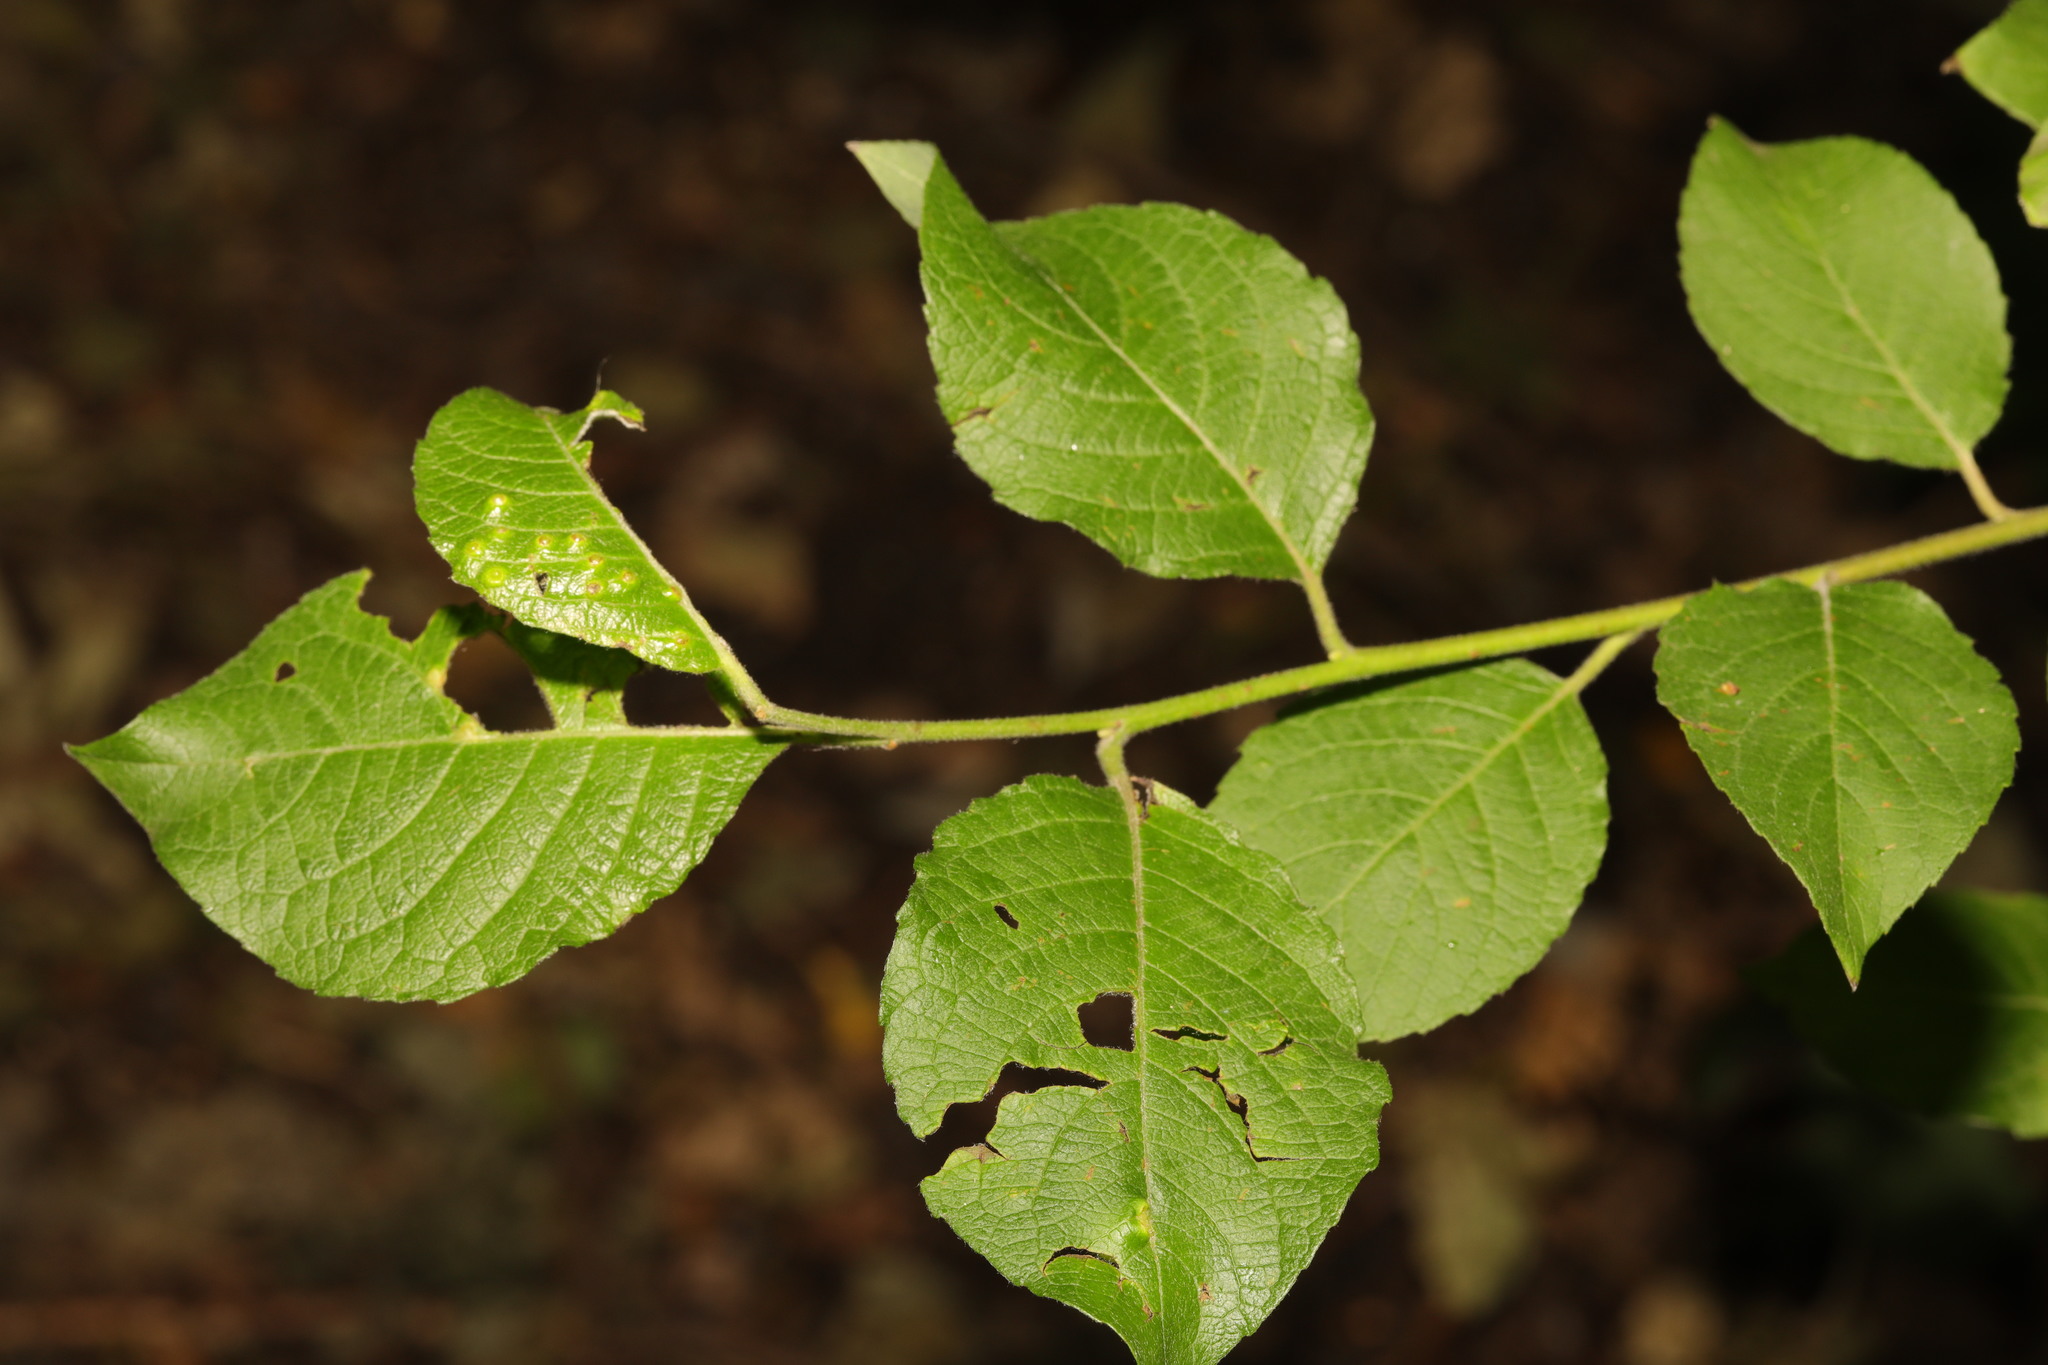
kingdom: Plantae
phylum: Tracheophyta
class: Magnoliopsida
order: Malpighiales
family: Salicaceae
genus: Salix
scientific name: Salix caprea
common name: Goat willow
